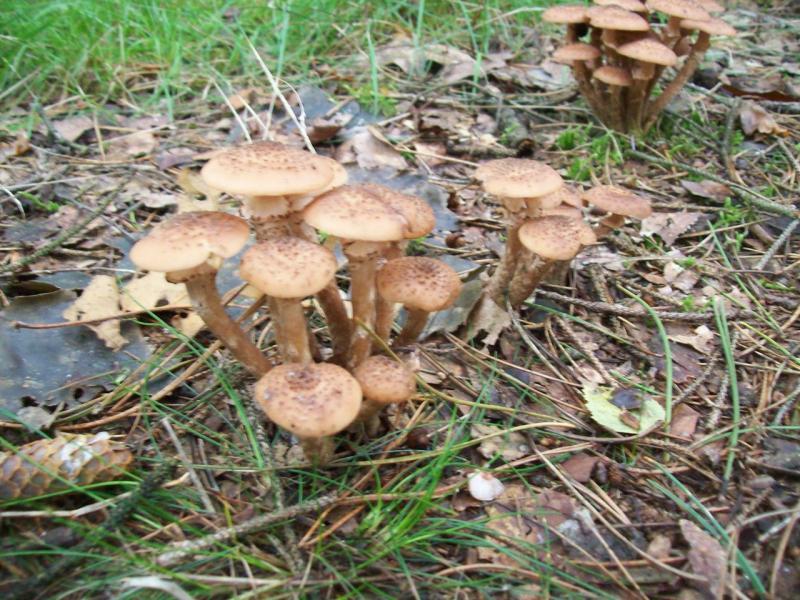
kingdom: Fungi
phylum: Basidiomycota
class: Agaricomycetes
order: Agaricales
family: Physalacriaceae
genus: Armillaria
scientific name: Armillaria mellea
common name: Honey fungus
